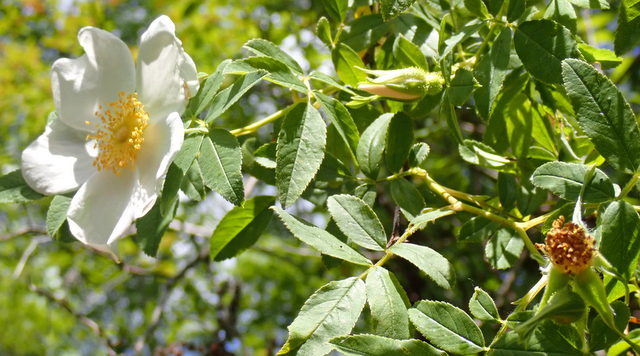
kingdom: Plantae
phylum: Tracheophyta
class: Magnoliopsida
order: Rosales
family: Rosaceae
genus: Rosa
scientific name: Rosa palustris
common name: Swamp rose
